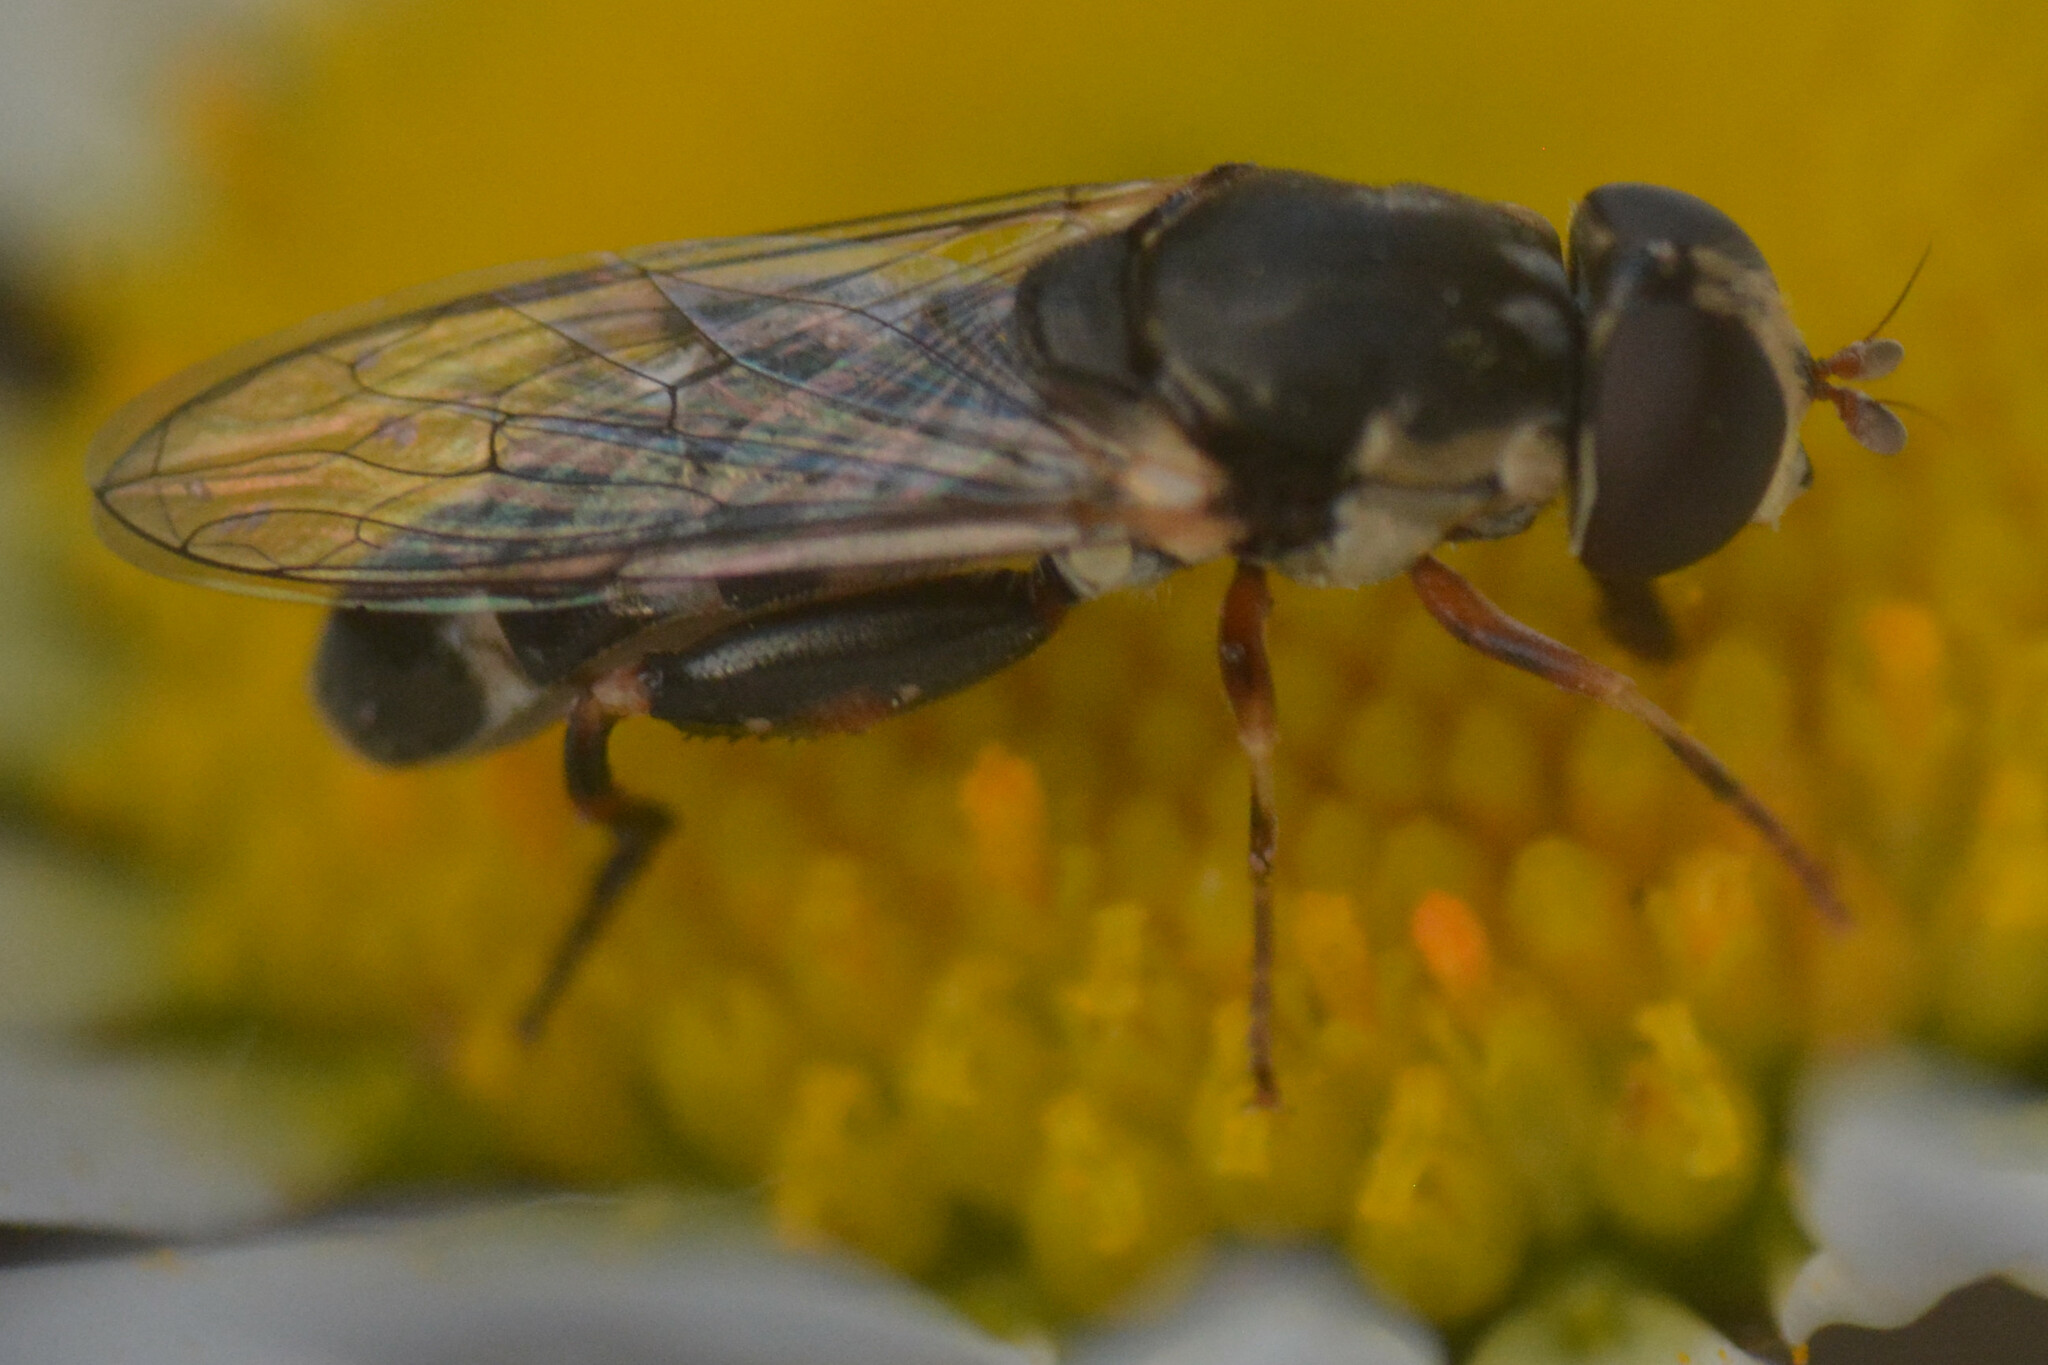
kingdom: Animalia
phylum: Arthropoda
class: Insecta
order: Diptera
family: Syrphidae
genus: Syritta
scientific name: Syritta pipiens
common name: Hover fly
